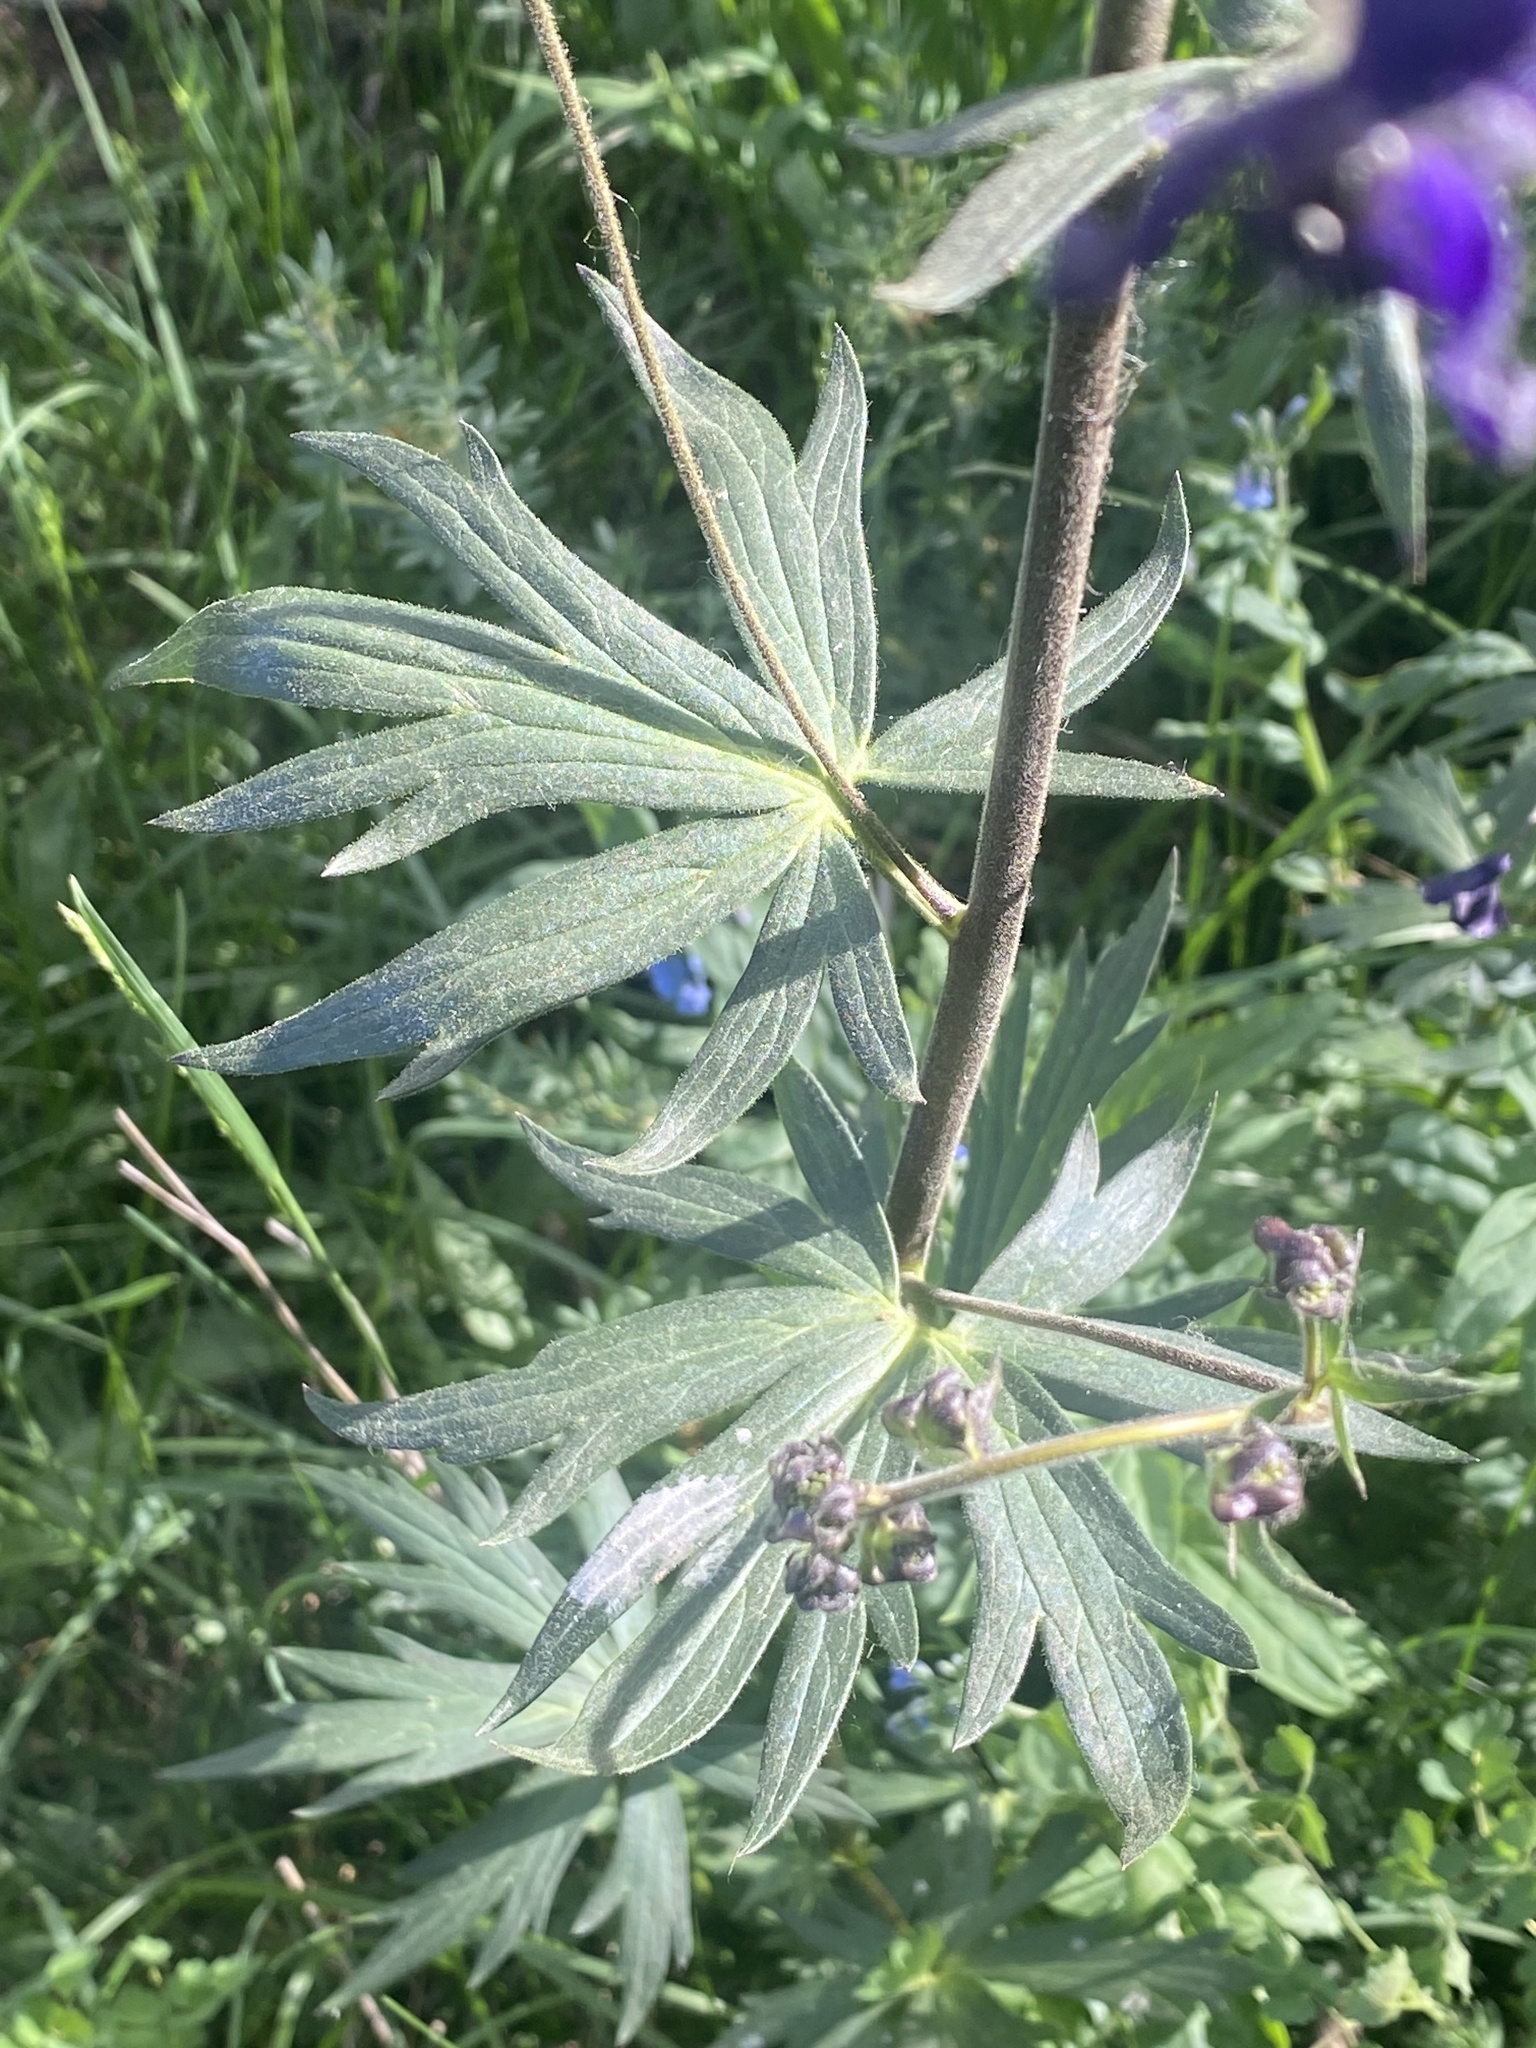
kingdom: Plantae
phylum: Tracheophyta
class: Magnoliopsida
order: Ranunculales
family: Ranunculaceae
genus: Aconitum
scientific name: Aconitum columbianum
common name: Columbia aconite
